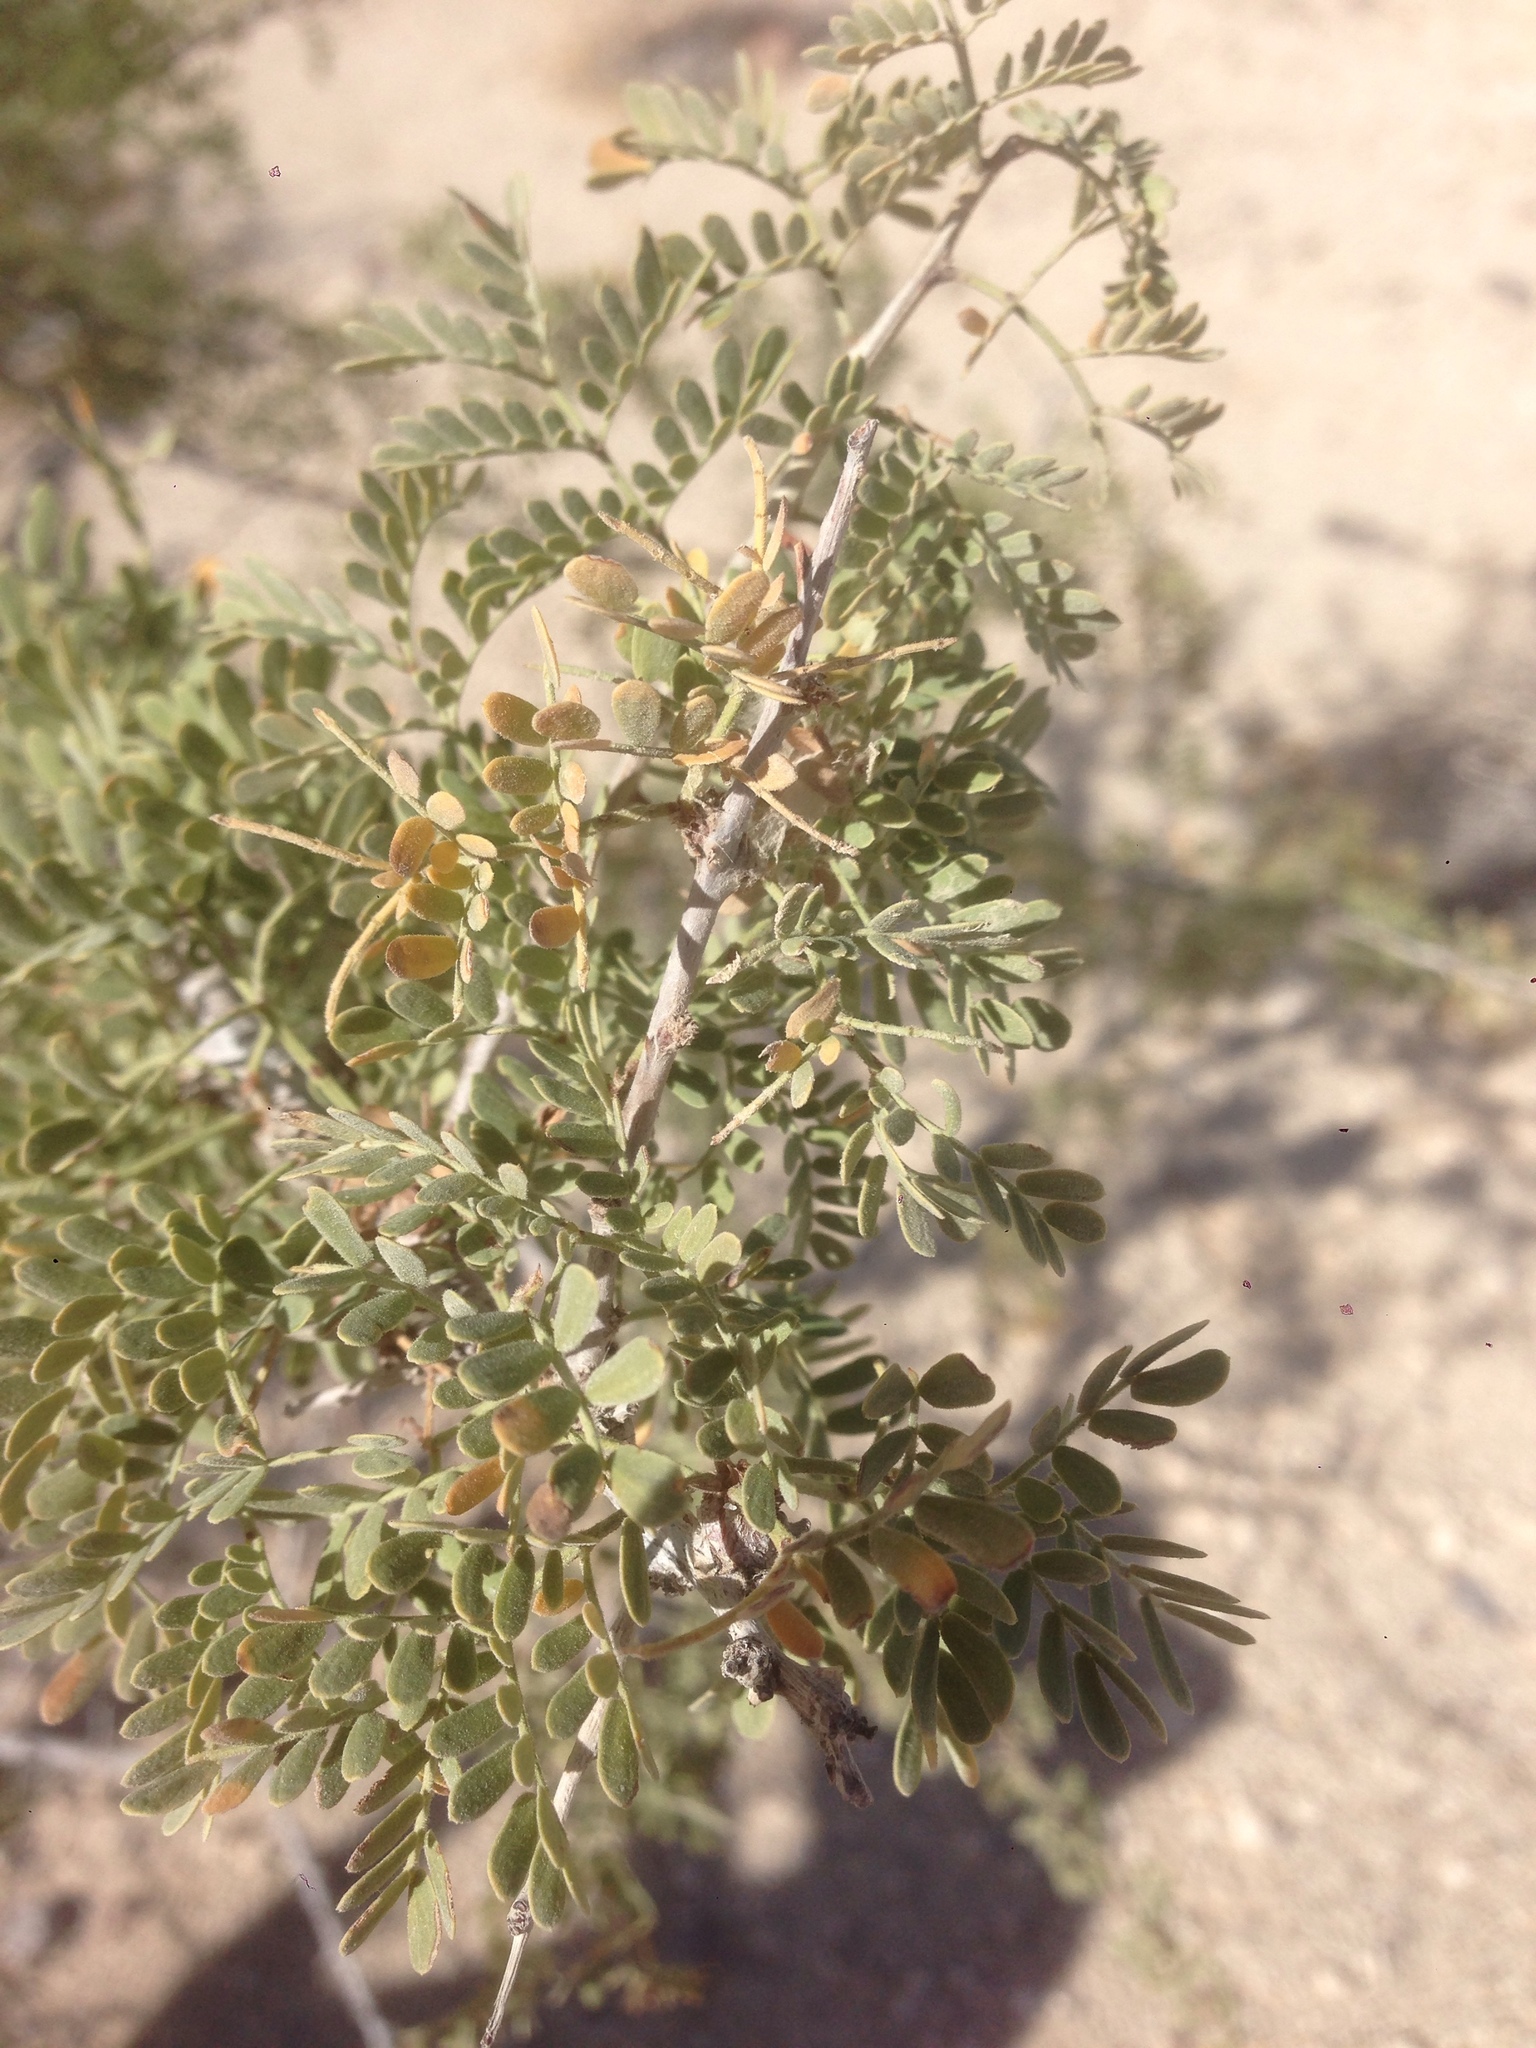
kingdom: Plantae
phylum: Tracheophyta
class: Magnoliopsida
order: Fabales
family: Fabaceae
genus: Senegalia
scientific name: Senegalia greggii
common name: Texas-mimosa
